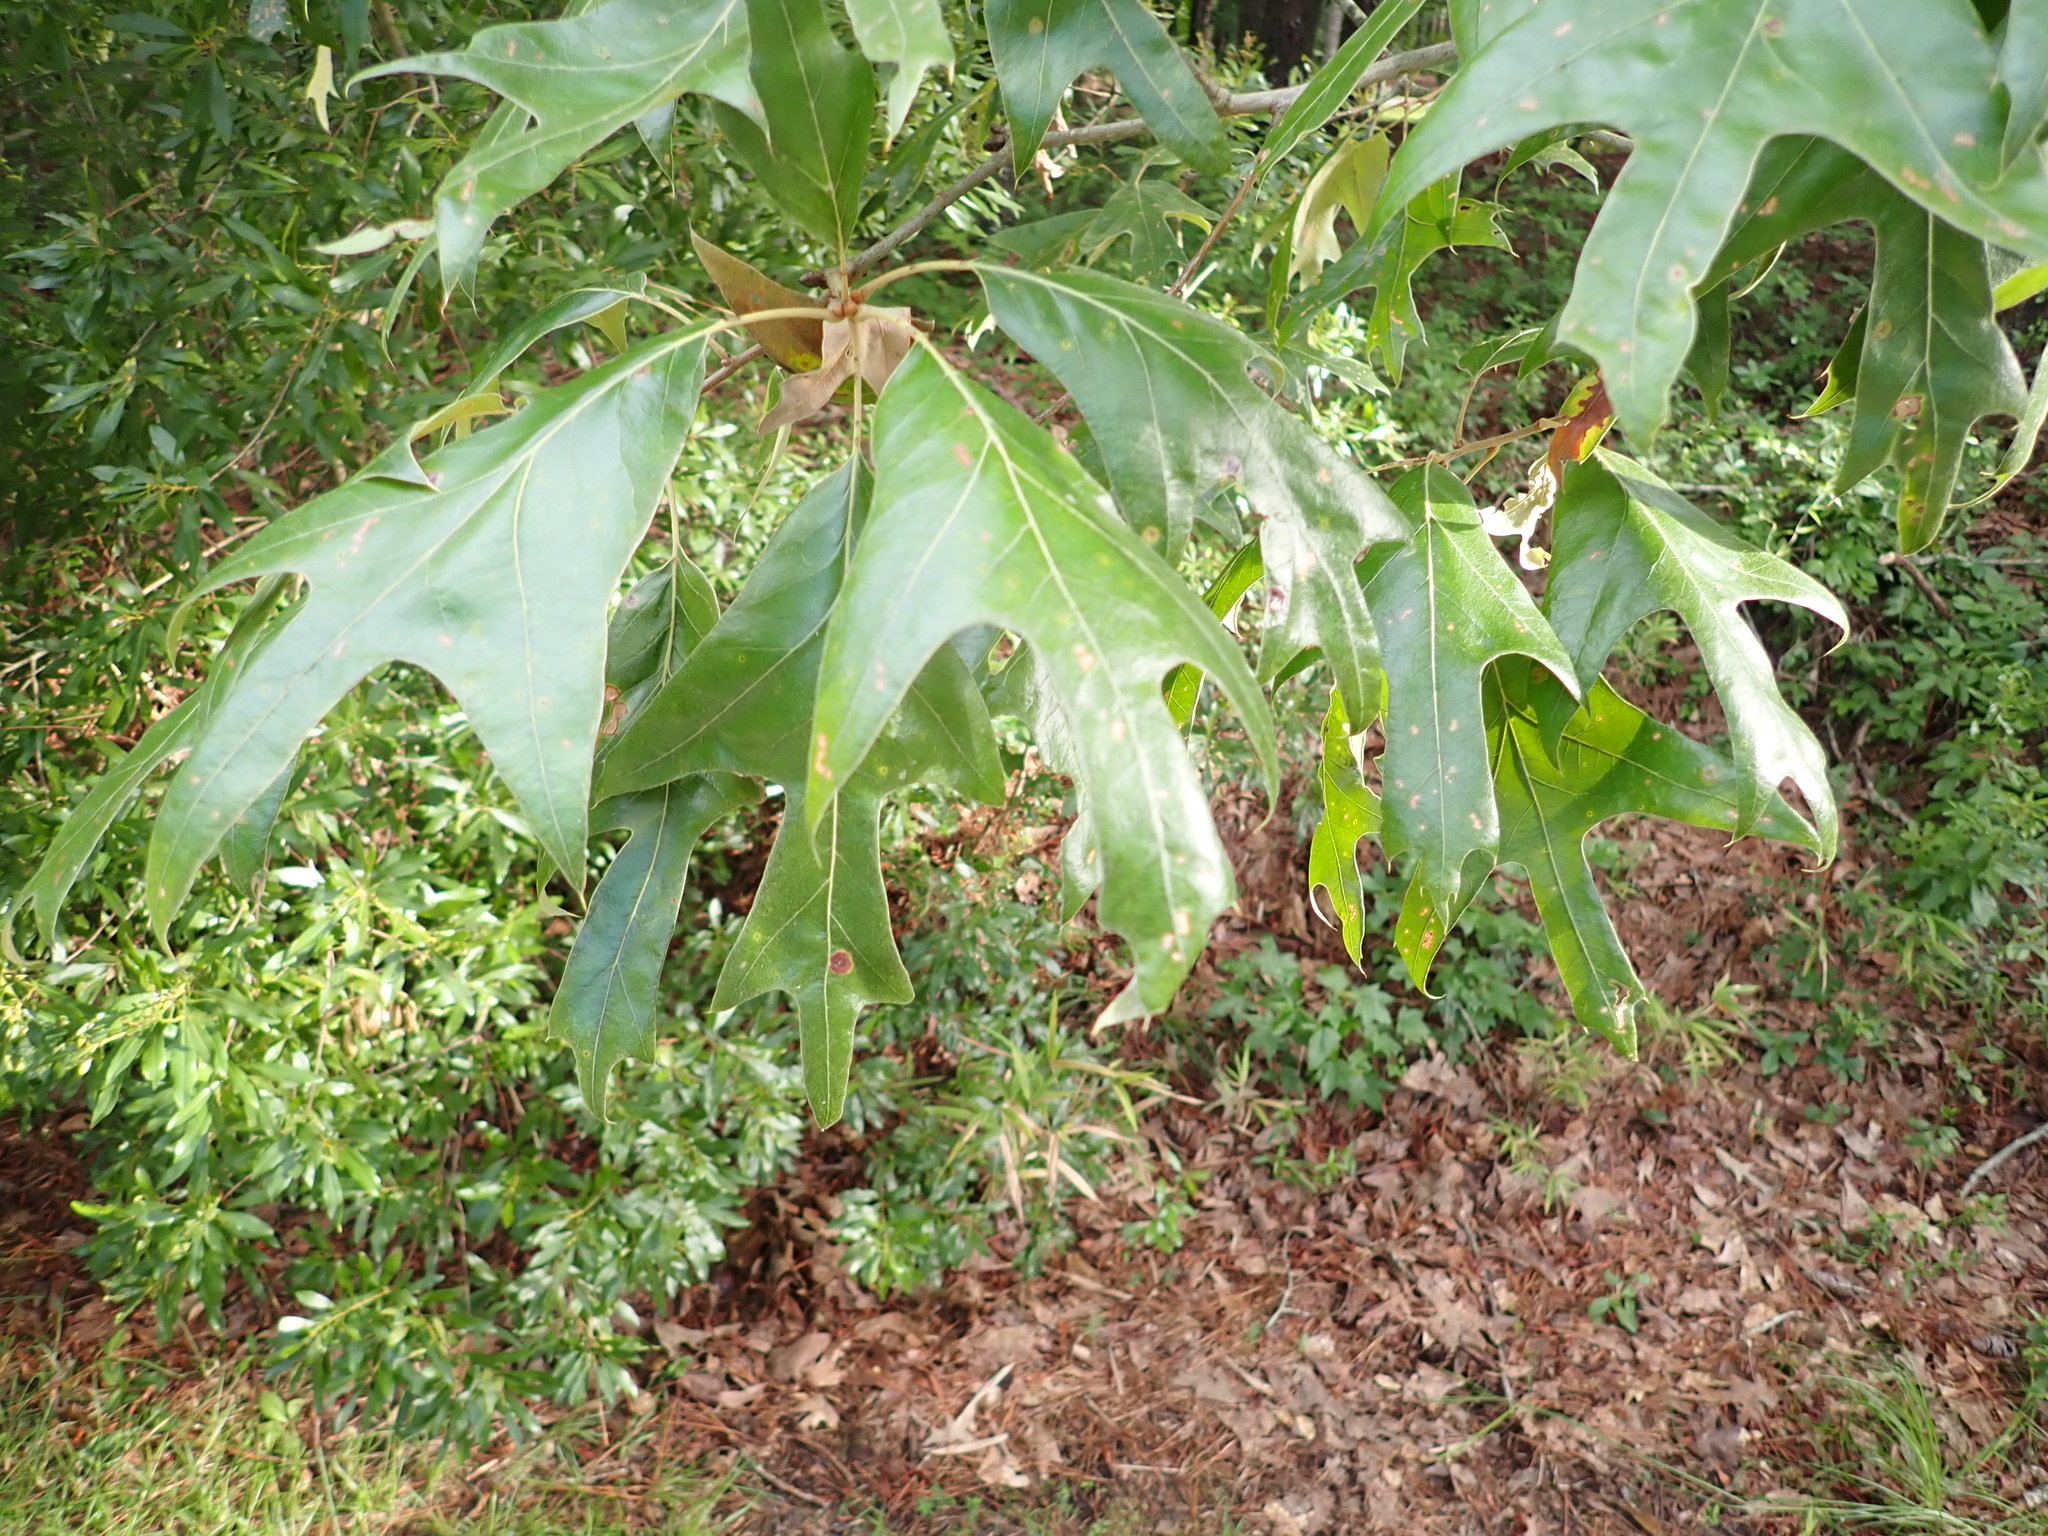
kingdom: Plantae
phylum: Tracheophyta
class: Magnoliopsida
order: Fagales
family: Fagaceae
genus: Quercus
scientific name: Quercus falcata
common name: Southern red oak
